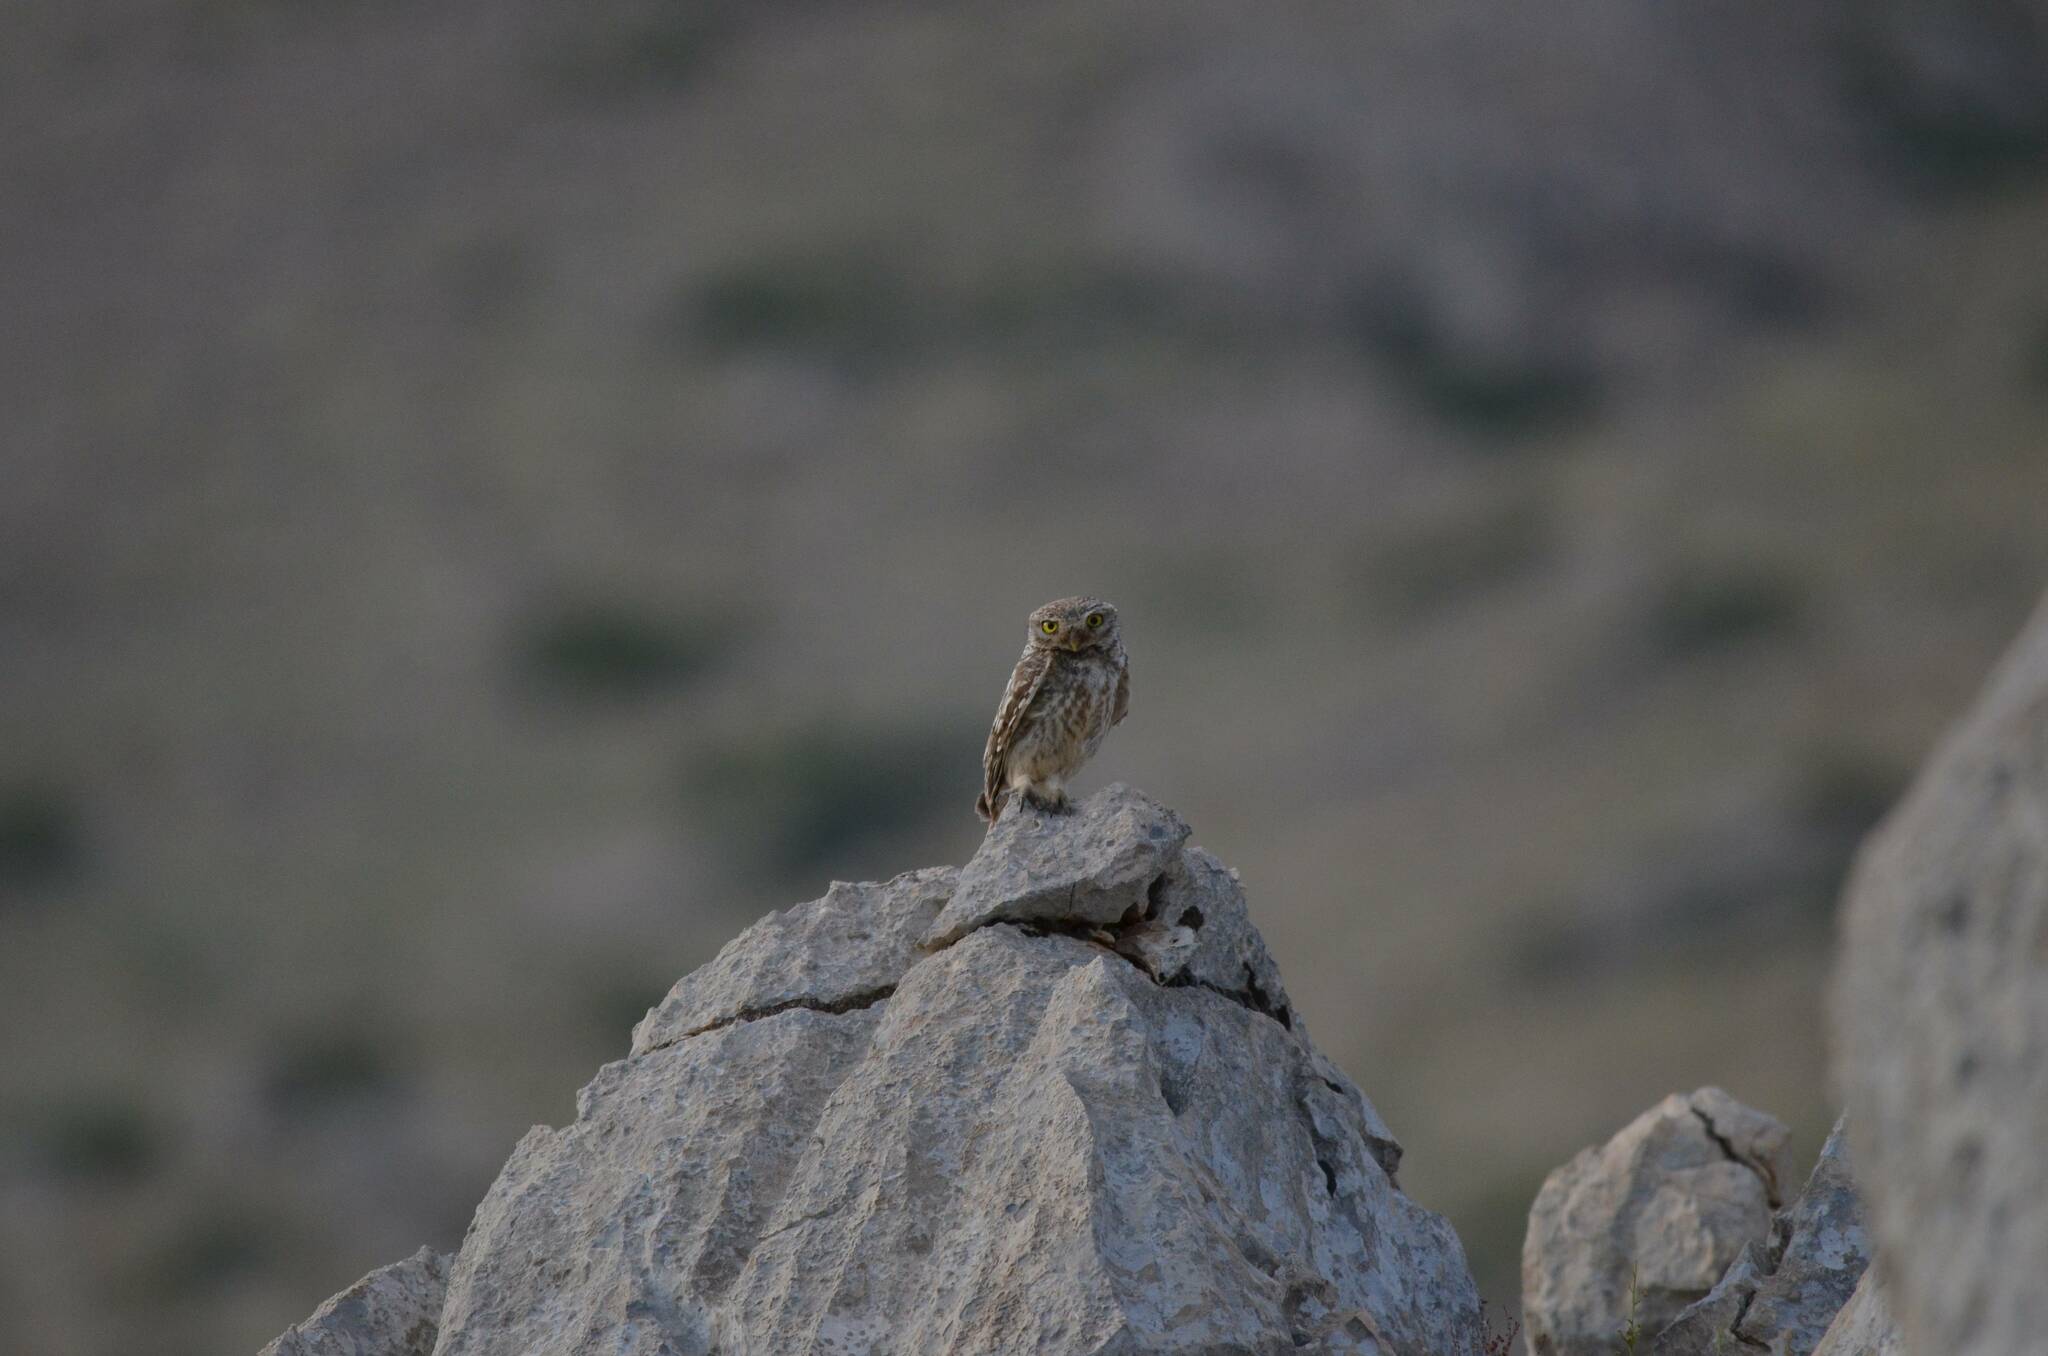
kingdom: Animalia
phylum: Chordata
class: Aves
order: Strigiformes
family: Strigidae
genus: Athene
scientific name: Athene noctua
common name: Little owl
